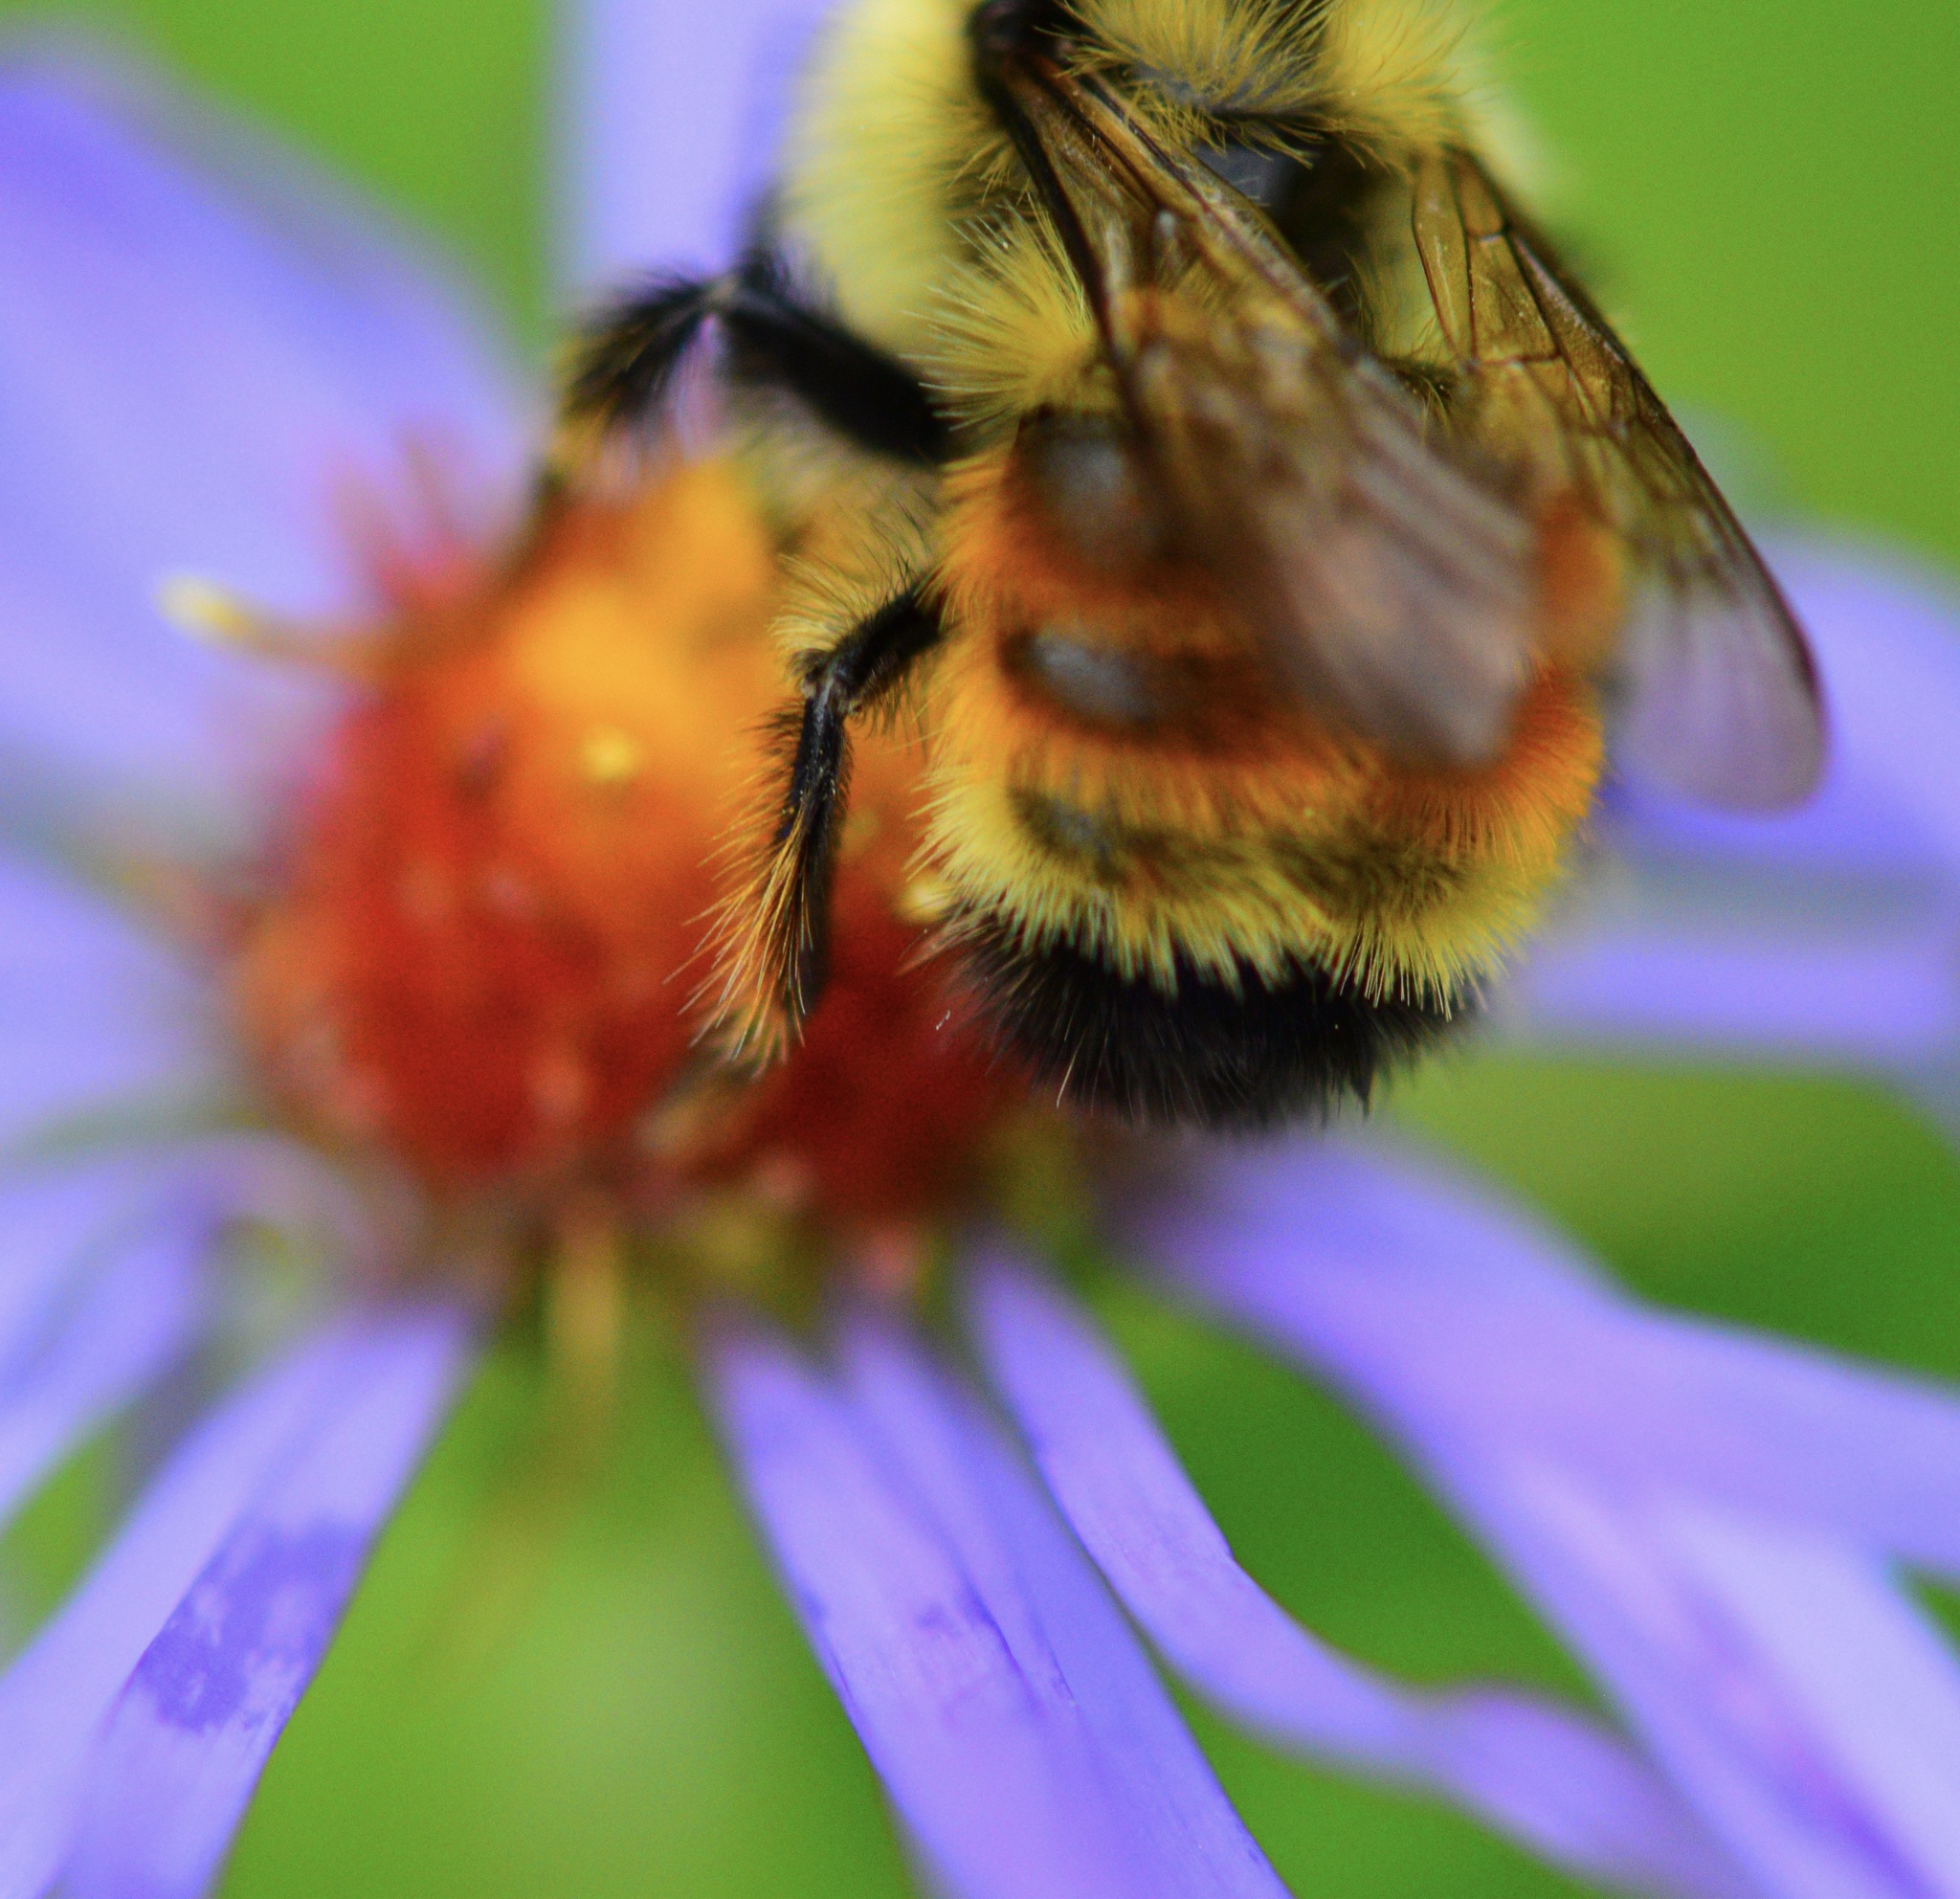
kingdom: Animalia
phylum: Arthropoda
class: Insecta
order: Hymenoptera
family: Apidae
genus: Bombus
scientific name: Bombus ternarius
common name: Tri-colored bumble bee
